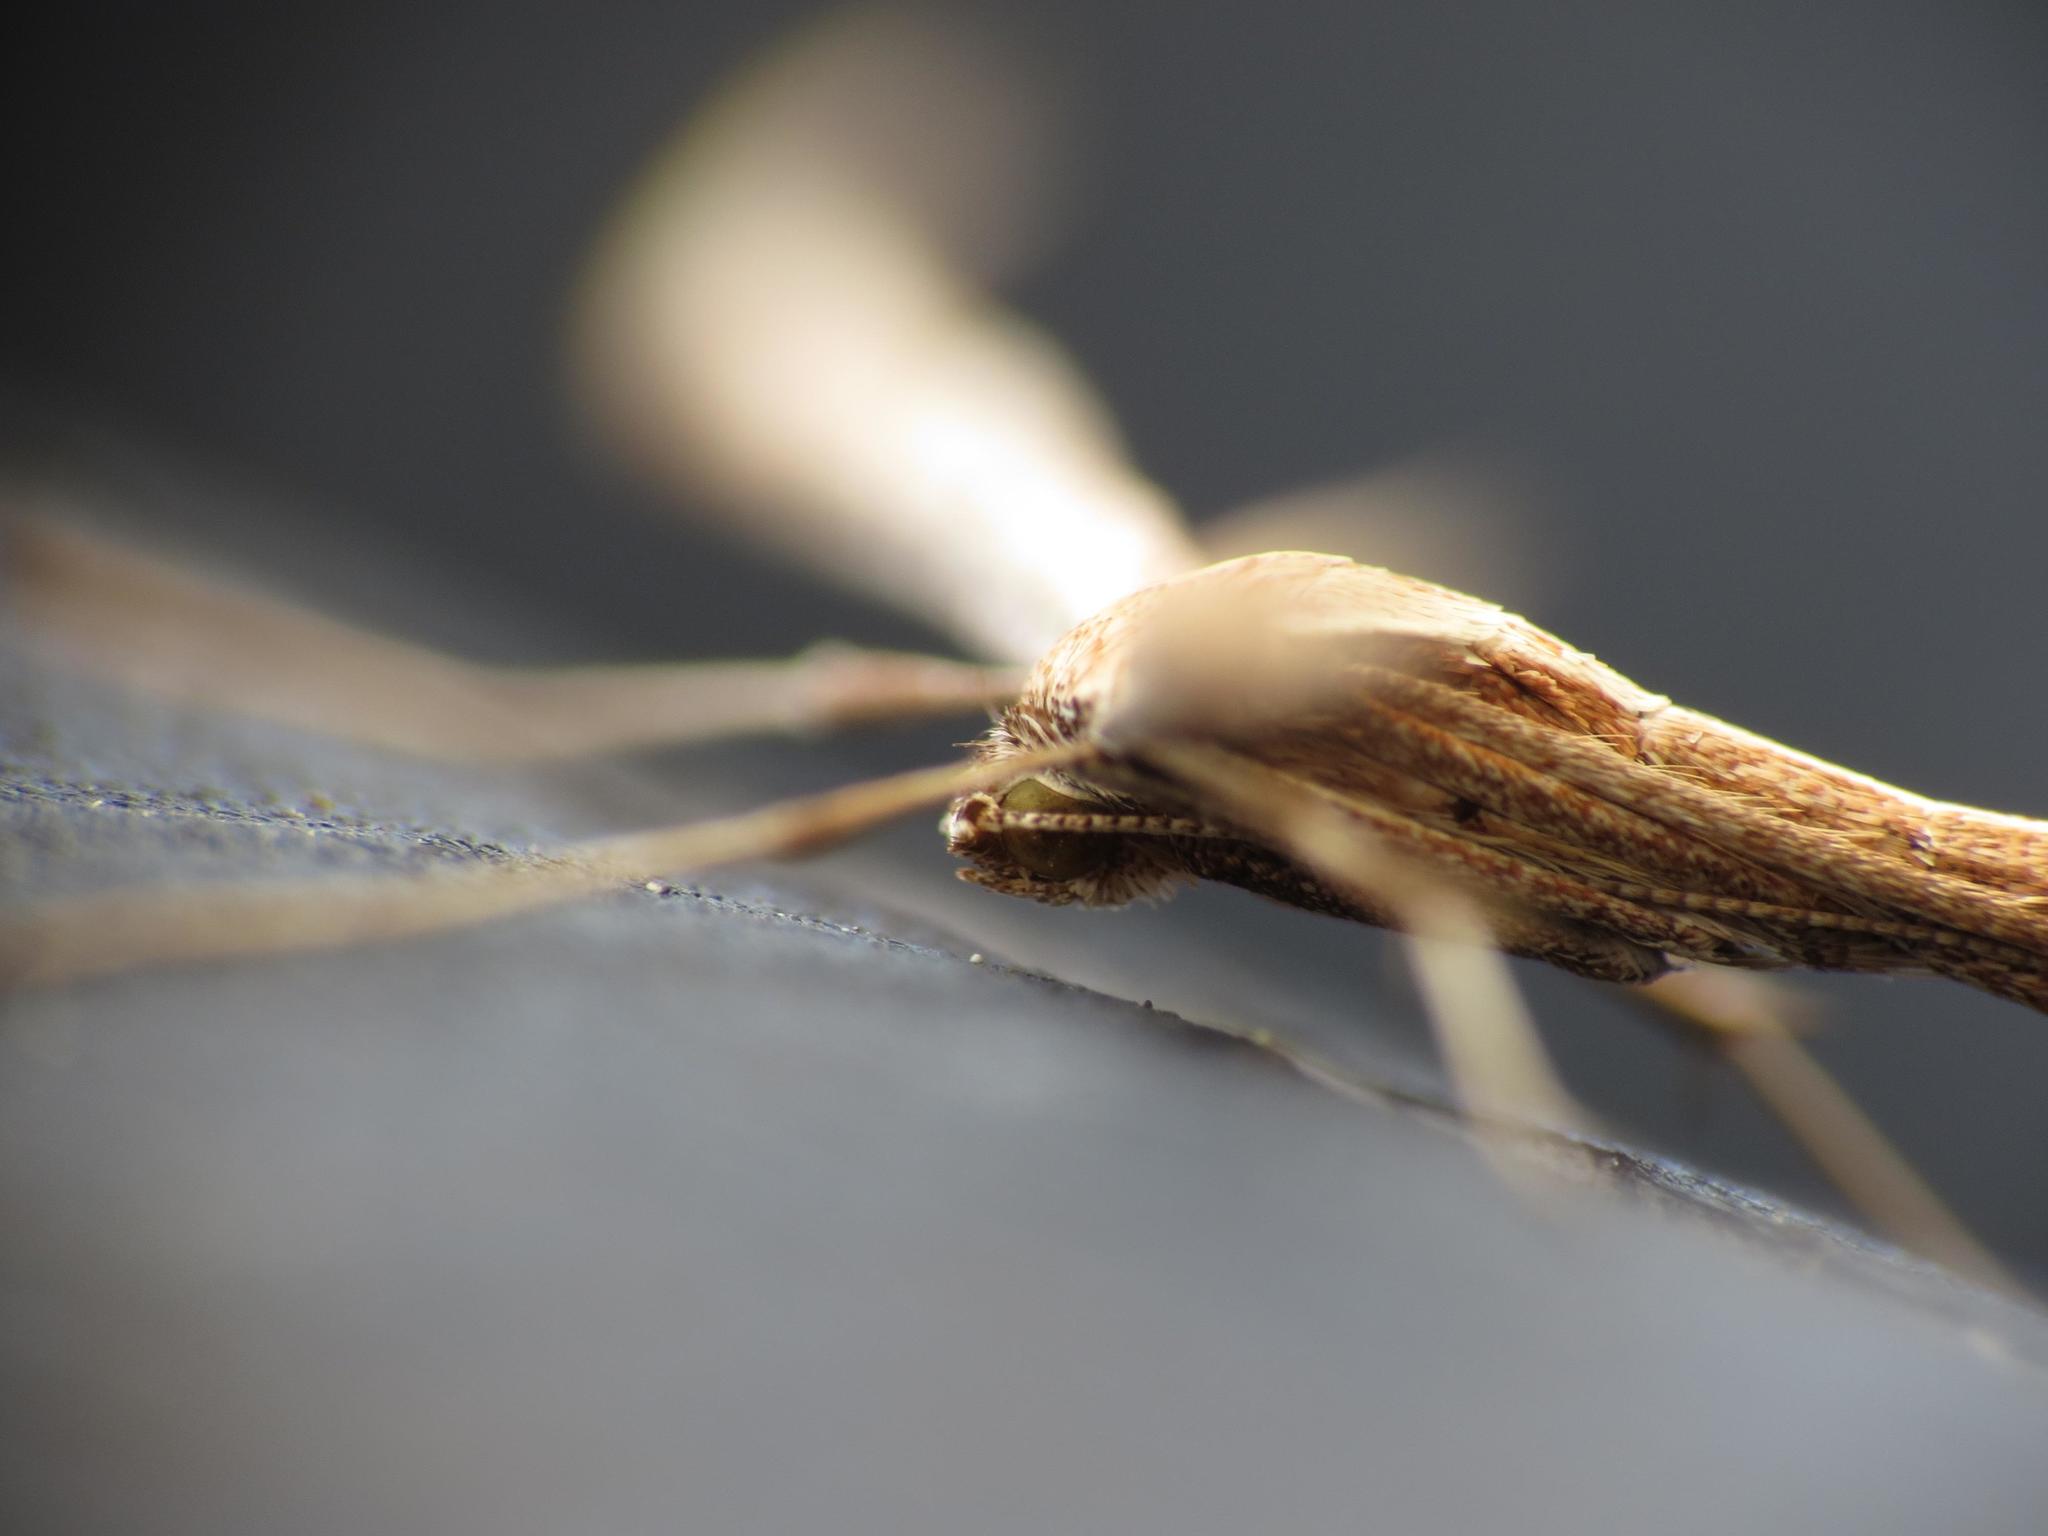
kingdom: Animalia
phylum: Arthropoda
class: Insecta
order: Lepidoptera
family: Pterophoridae
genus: Emmelina
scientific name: Emmelina monodactyla
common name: Common plume
